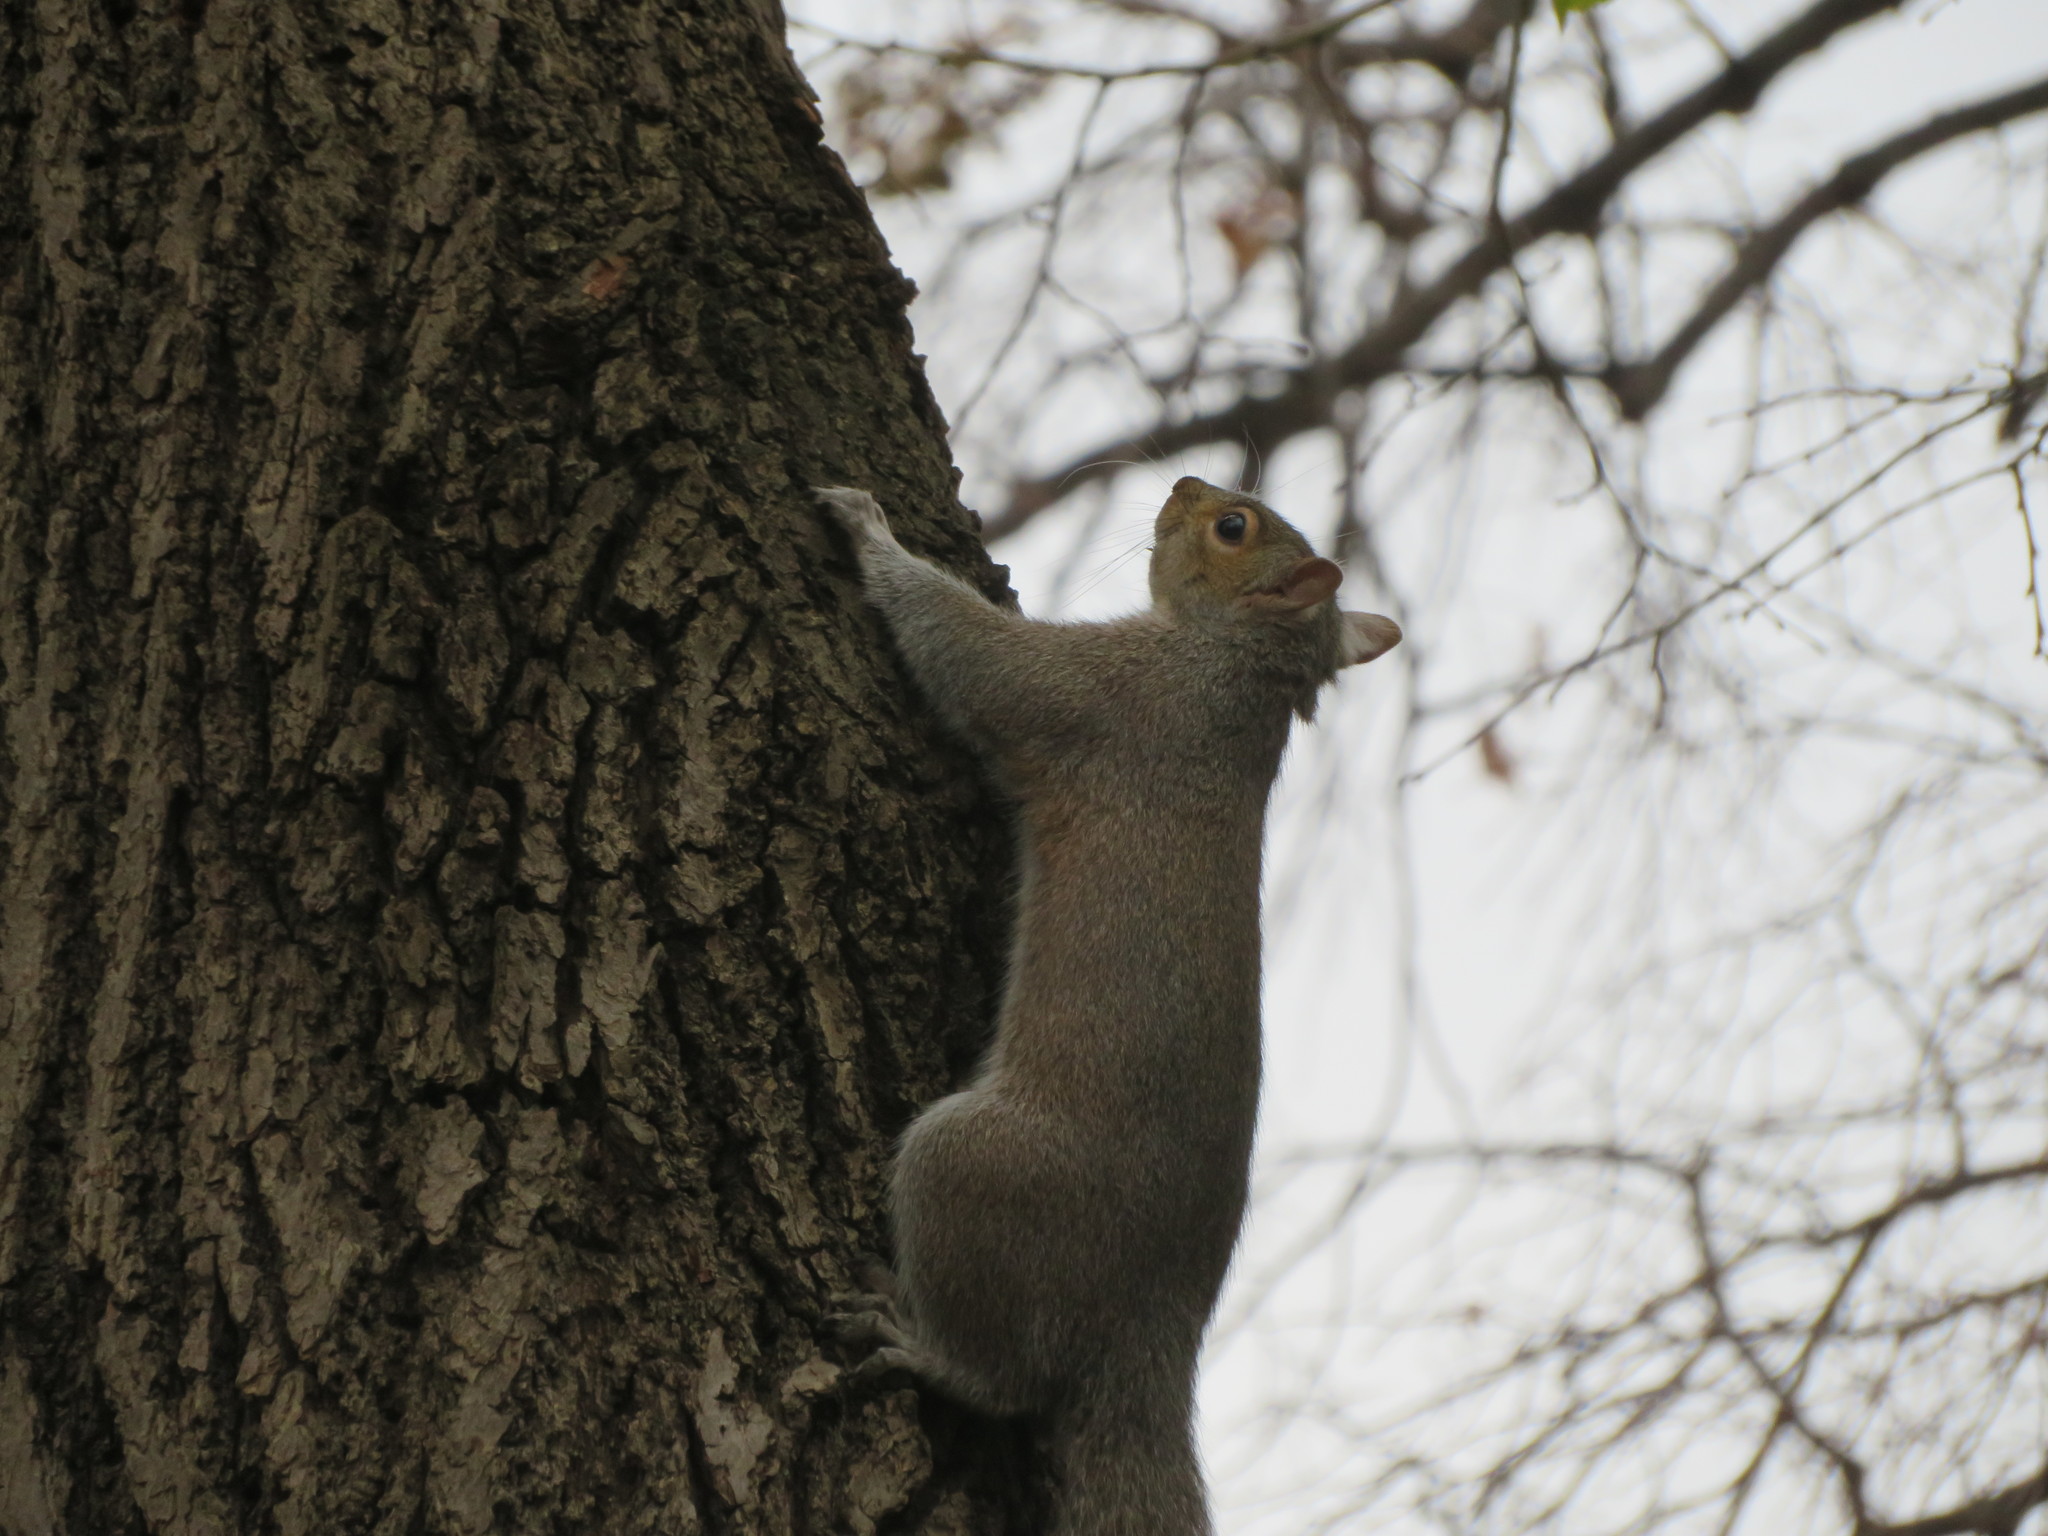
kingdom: Animalia
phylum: Chordata
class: Mammalia
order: Rodentia
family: Sciuridae
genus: Sciurus
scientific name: Sciurus carolinensis
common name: Eastern gray squirrel
